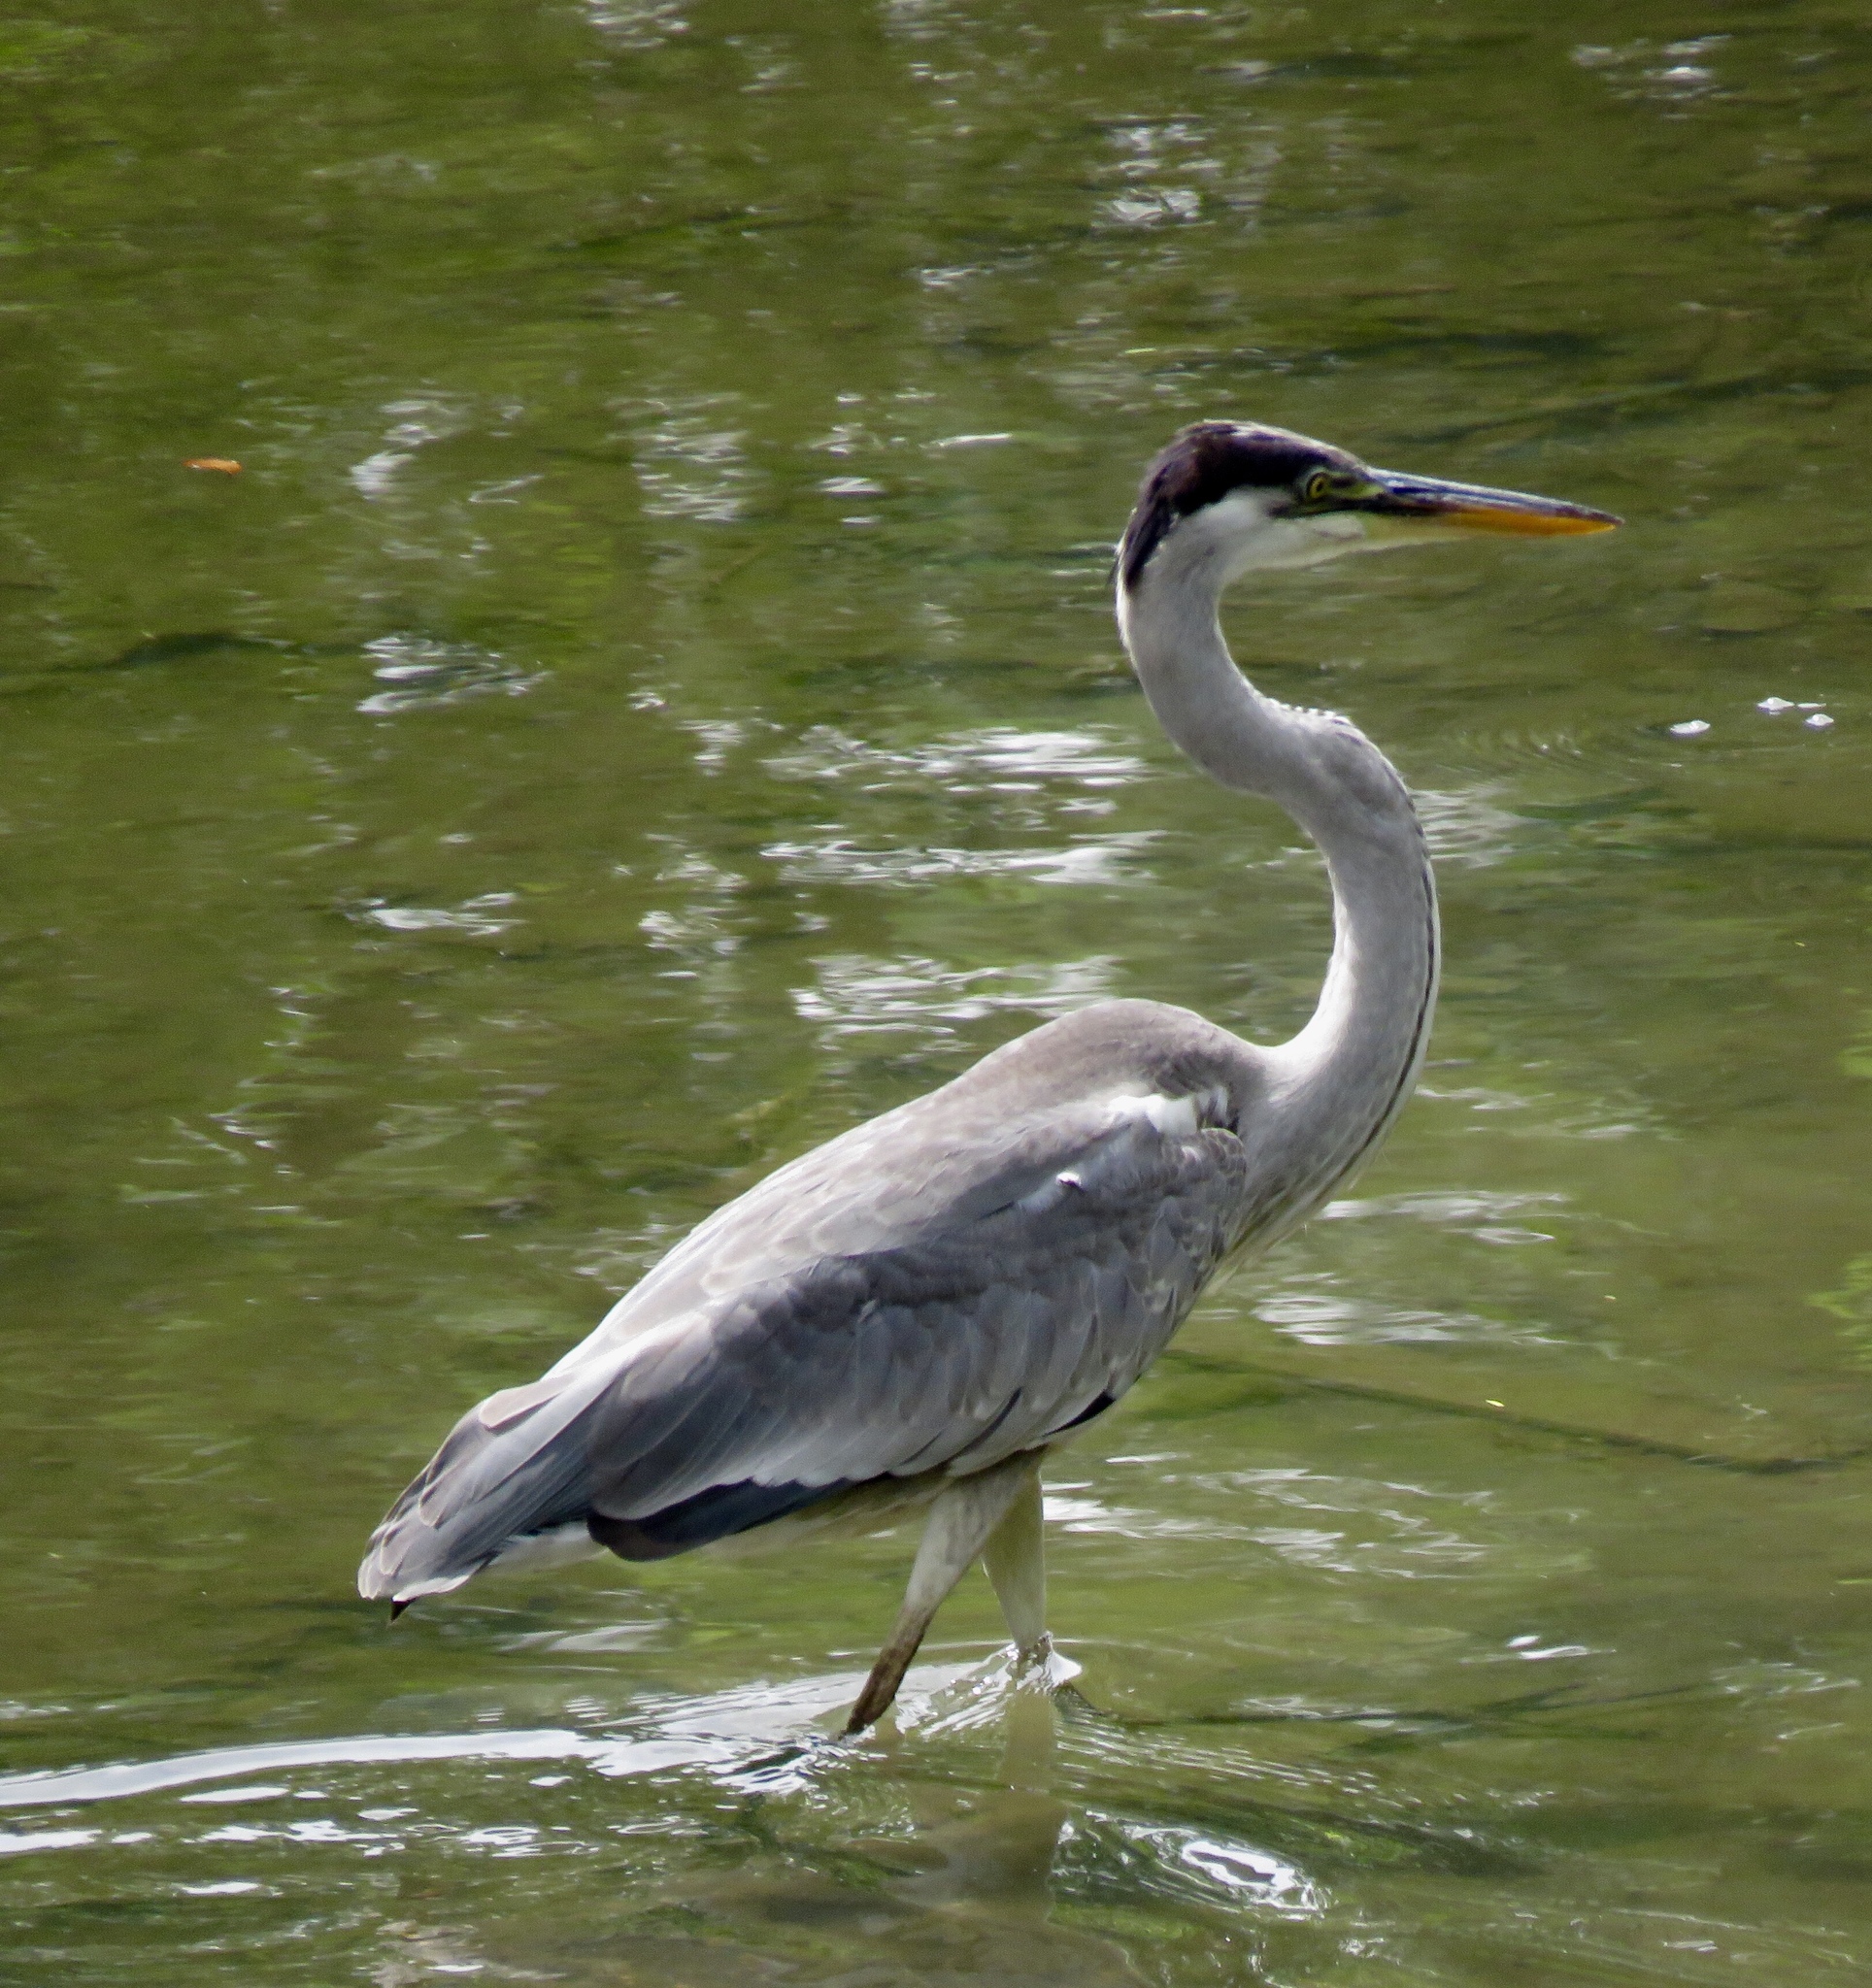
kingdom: Animalia
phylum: Chordata
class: Aves
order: Pelecaniformes
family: Ardeidae
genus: Ardea
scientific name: Ardea cocoi
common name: Cocoi heron
